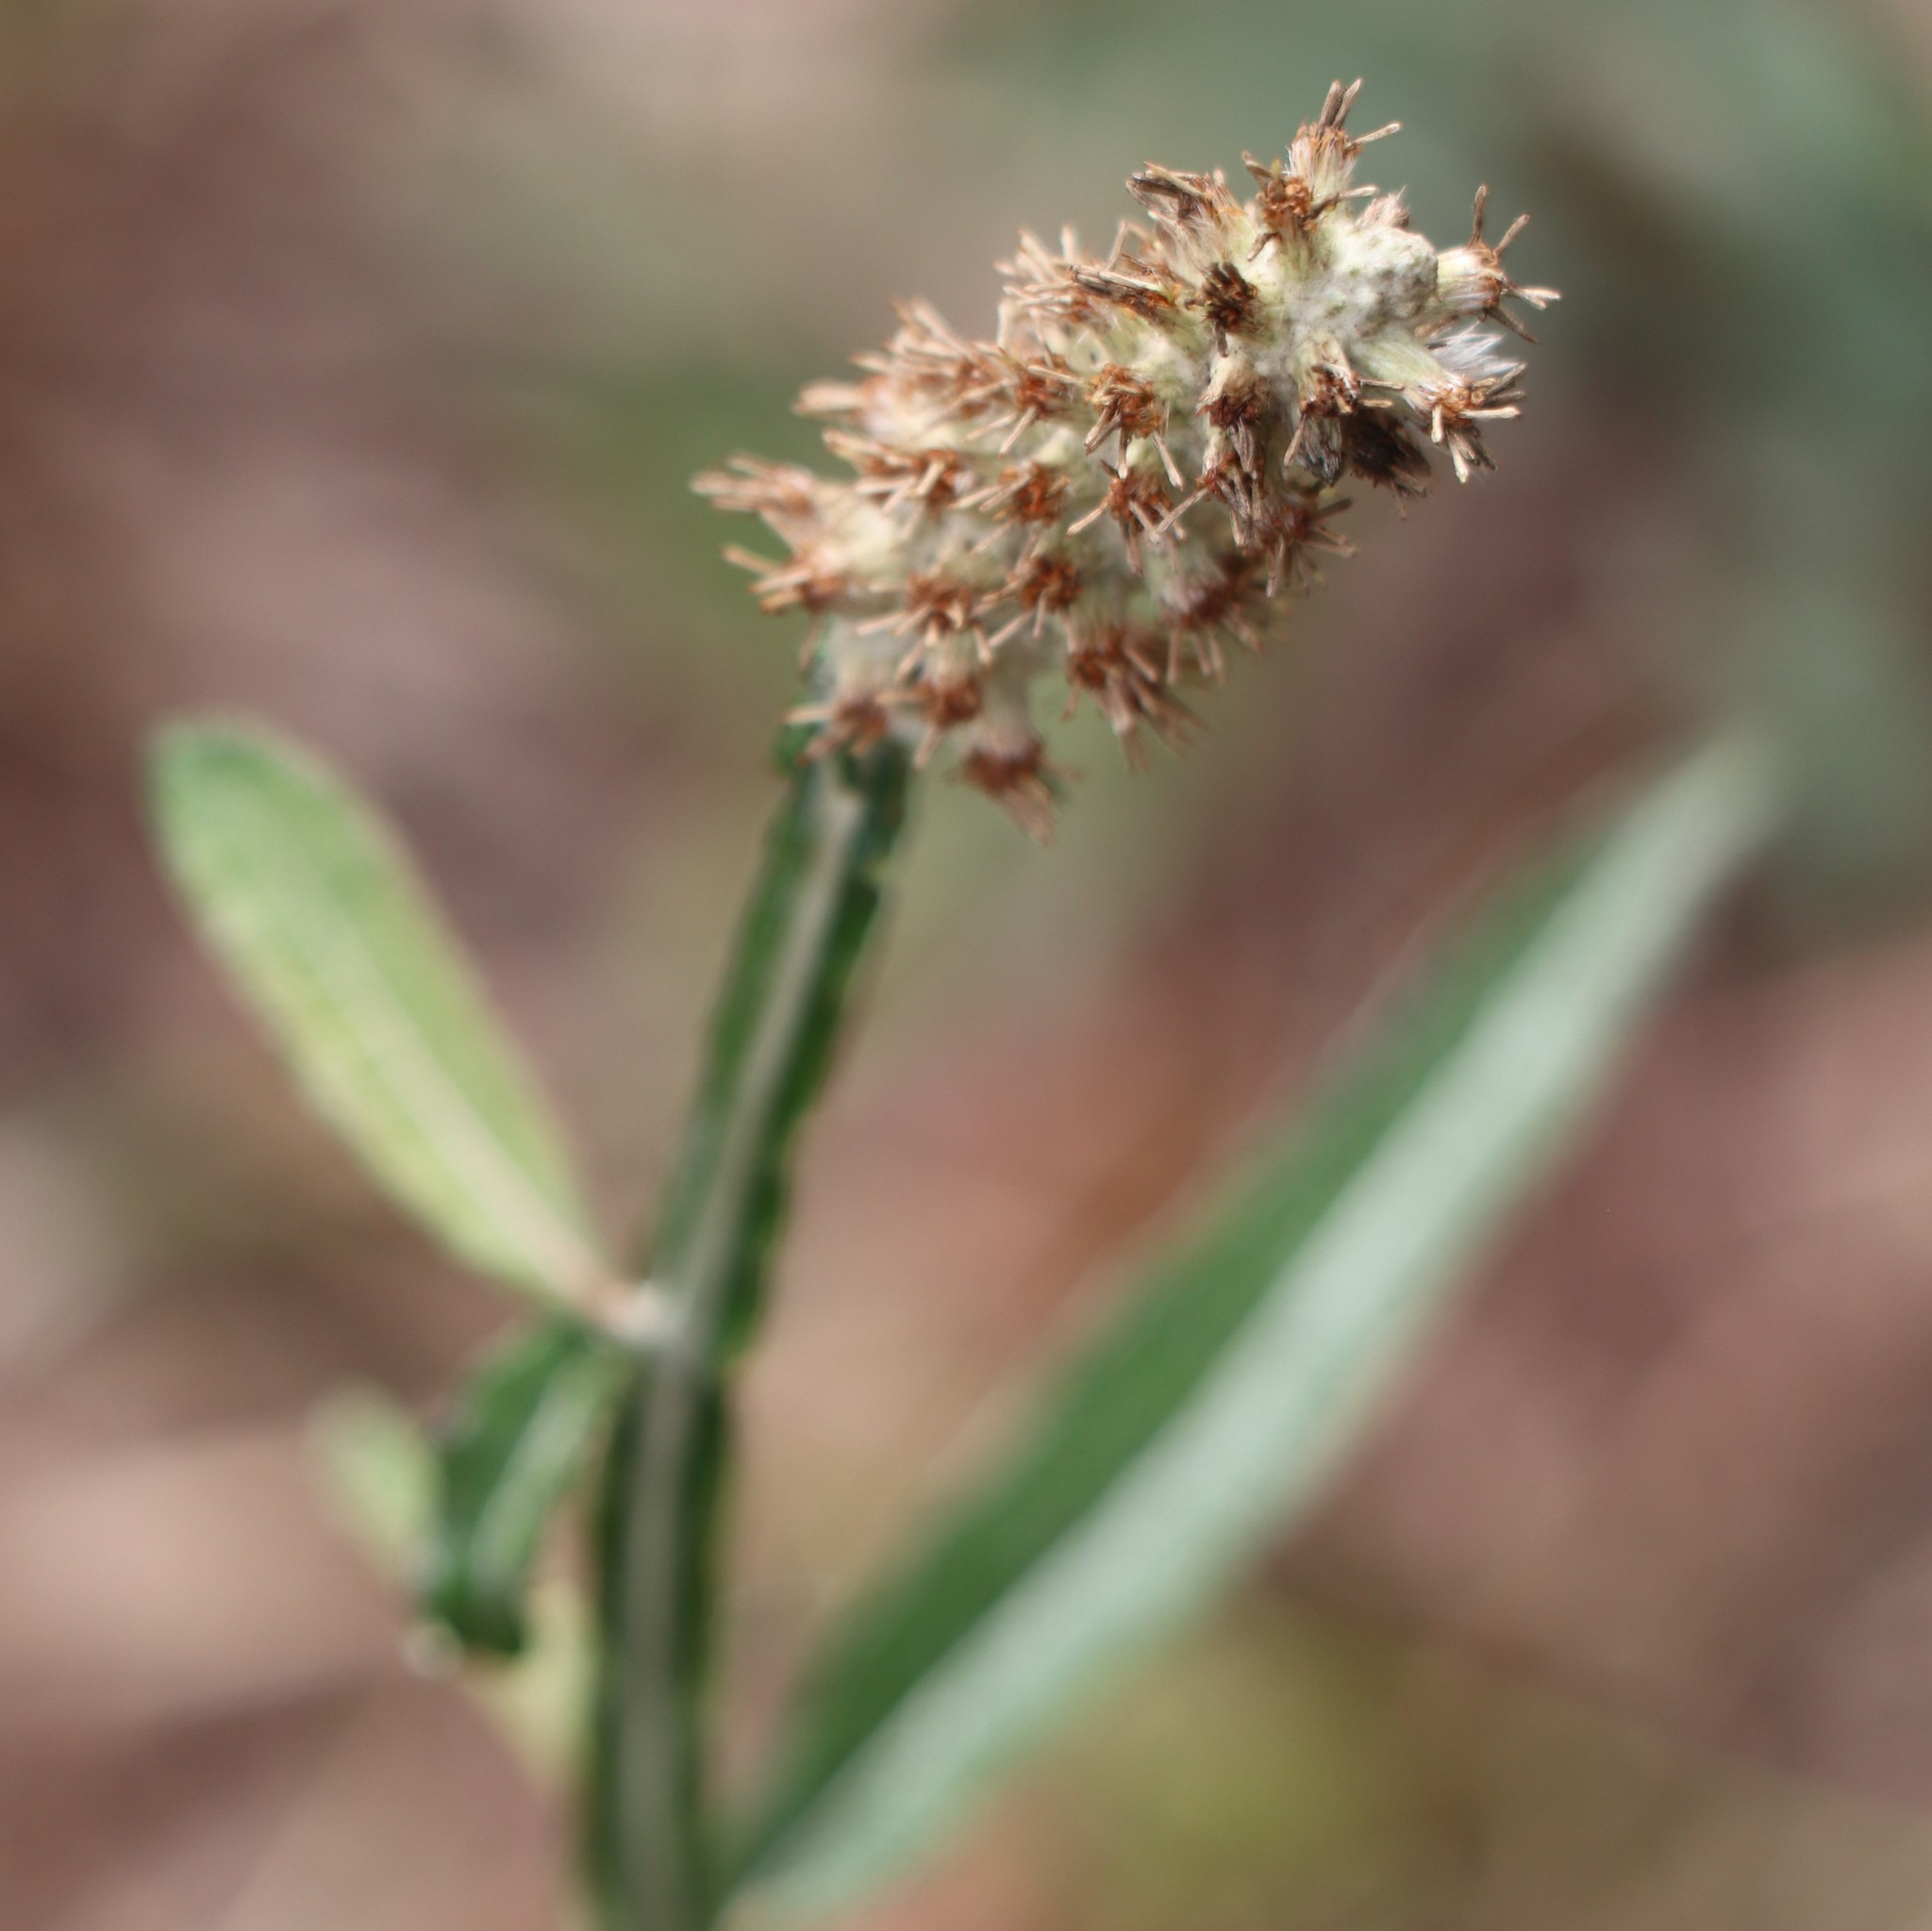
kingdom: Plantae
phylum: Tracheophyta
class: Magnoliopsida
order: Asterales
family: Asteraceae
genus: Pterocaulon
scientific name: Pterocaulon pycnostachyum
